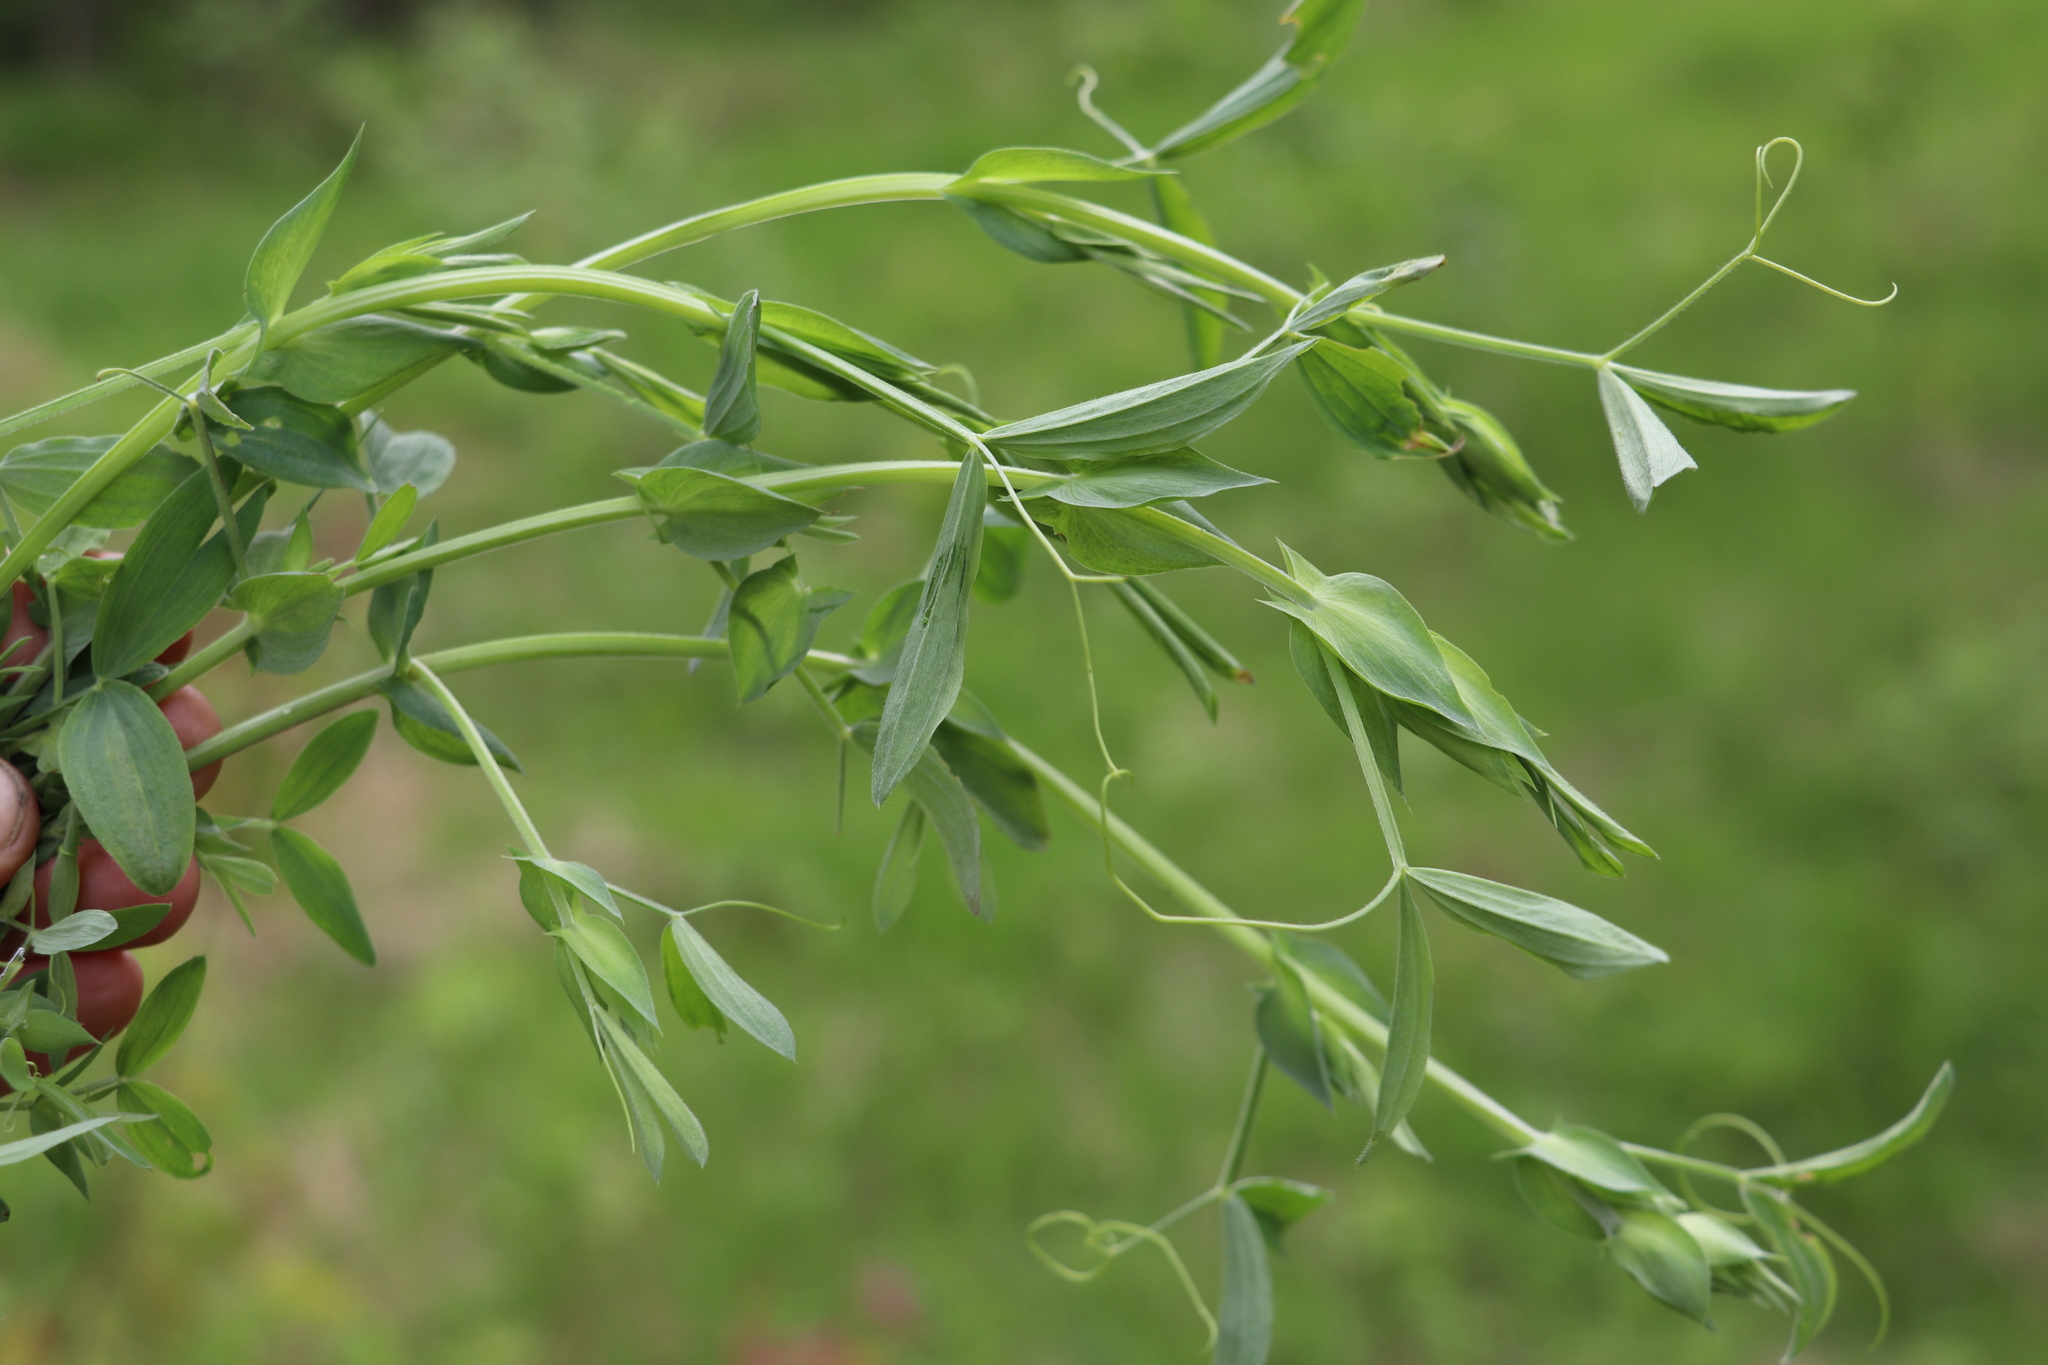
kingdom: Plantae
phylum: Tracheophyta
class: Magnoliopsida
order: Fabales
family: Fabaceae
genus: Lathyrus
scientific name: Lathyrus pratensis
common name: Meadow vetchling
